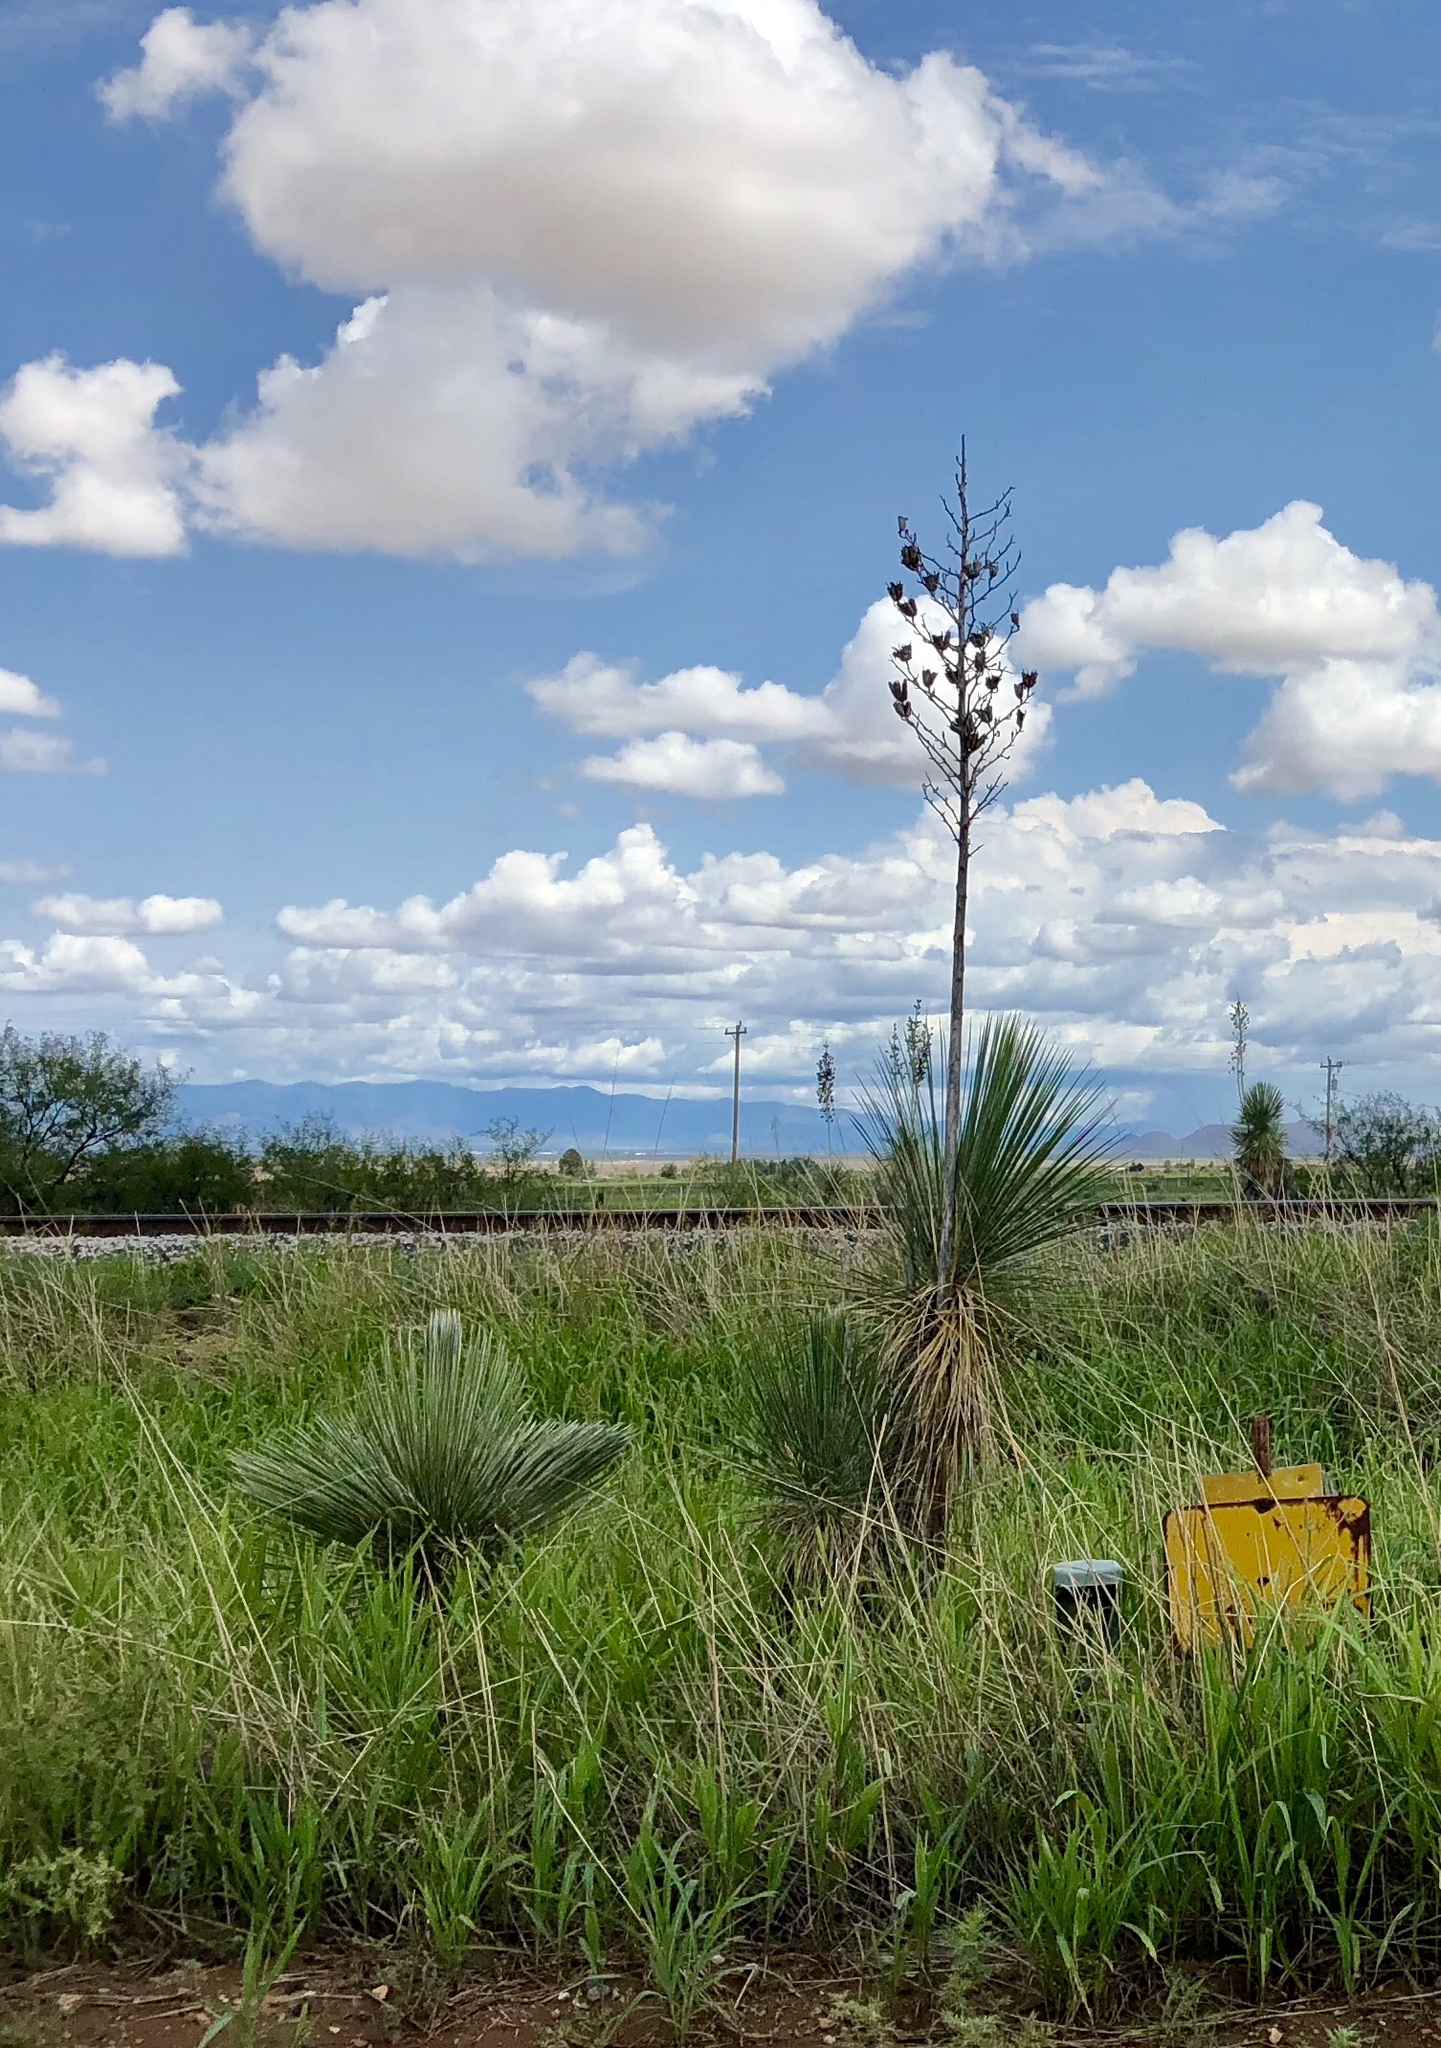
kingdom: Plantae
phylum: Tracheophyta
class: Liliopsida
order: Asparagales
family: Asparagaceae
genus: Yucca
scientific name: Yucca elata
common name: Palmella
